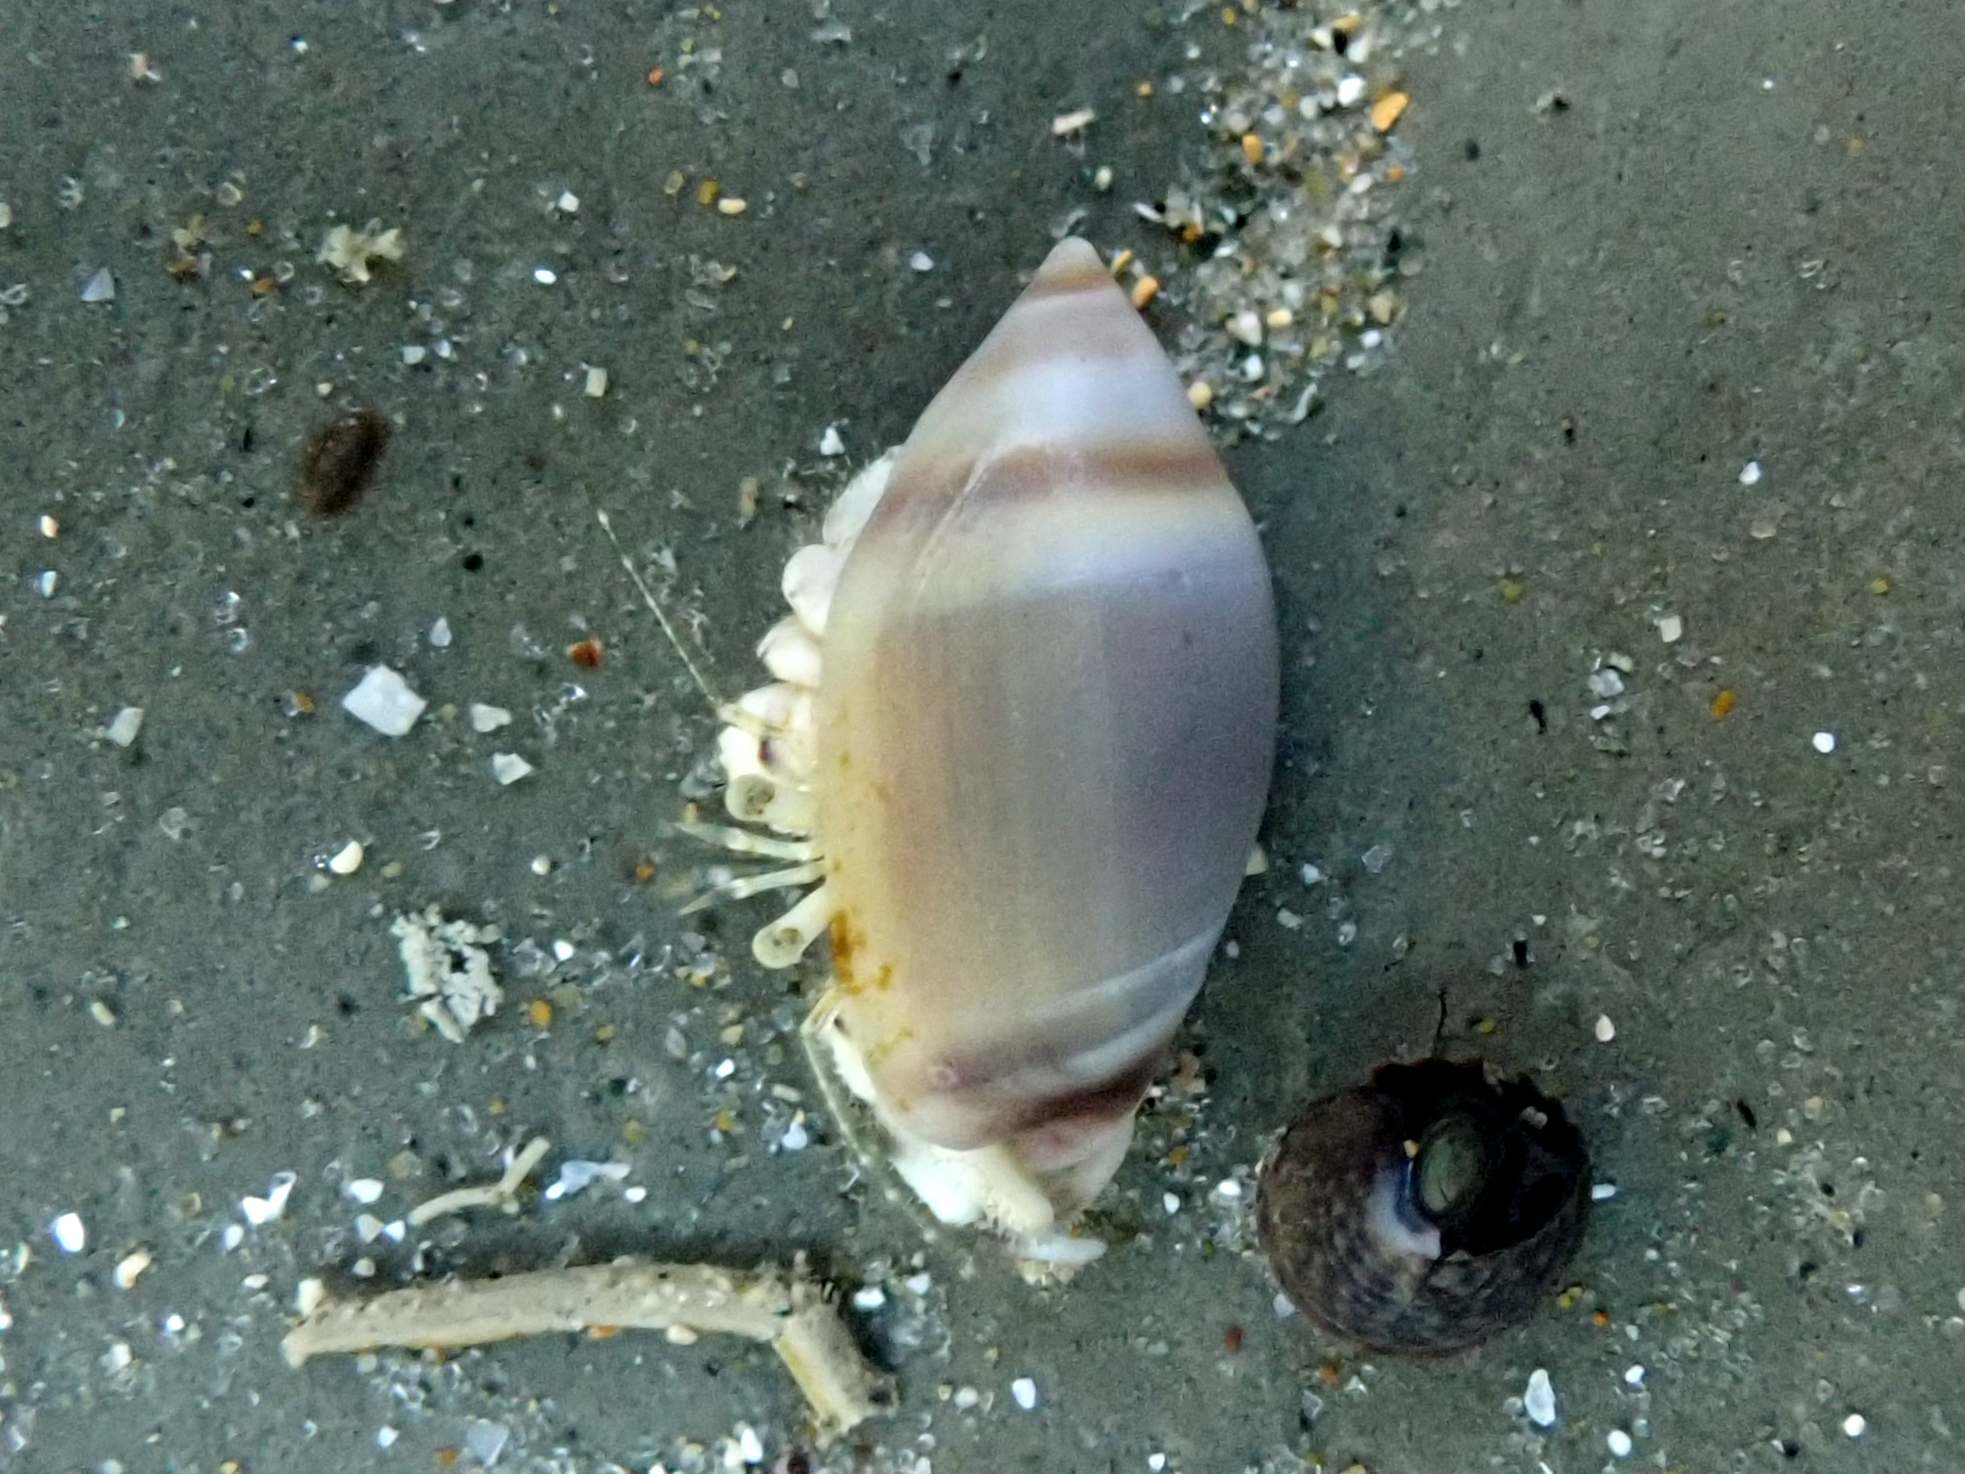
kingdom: Animalia
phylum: Mollusca
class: Gastropoda
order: Neogastropoda
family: Ancillariidae
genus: Amalda
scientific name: Amalda depressa
